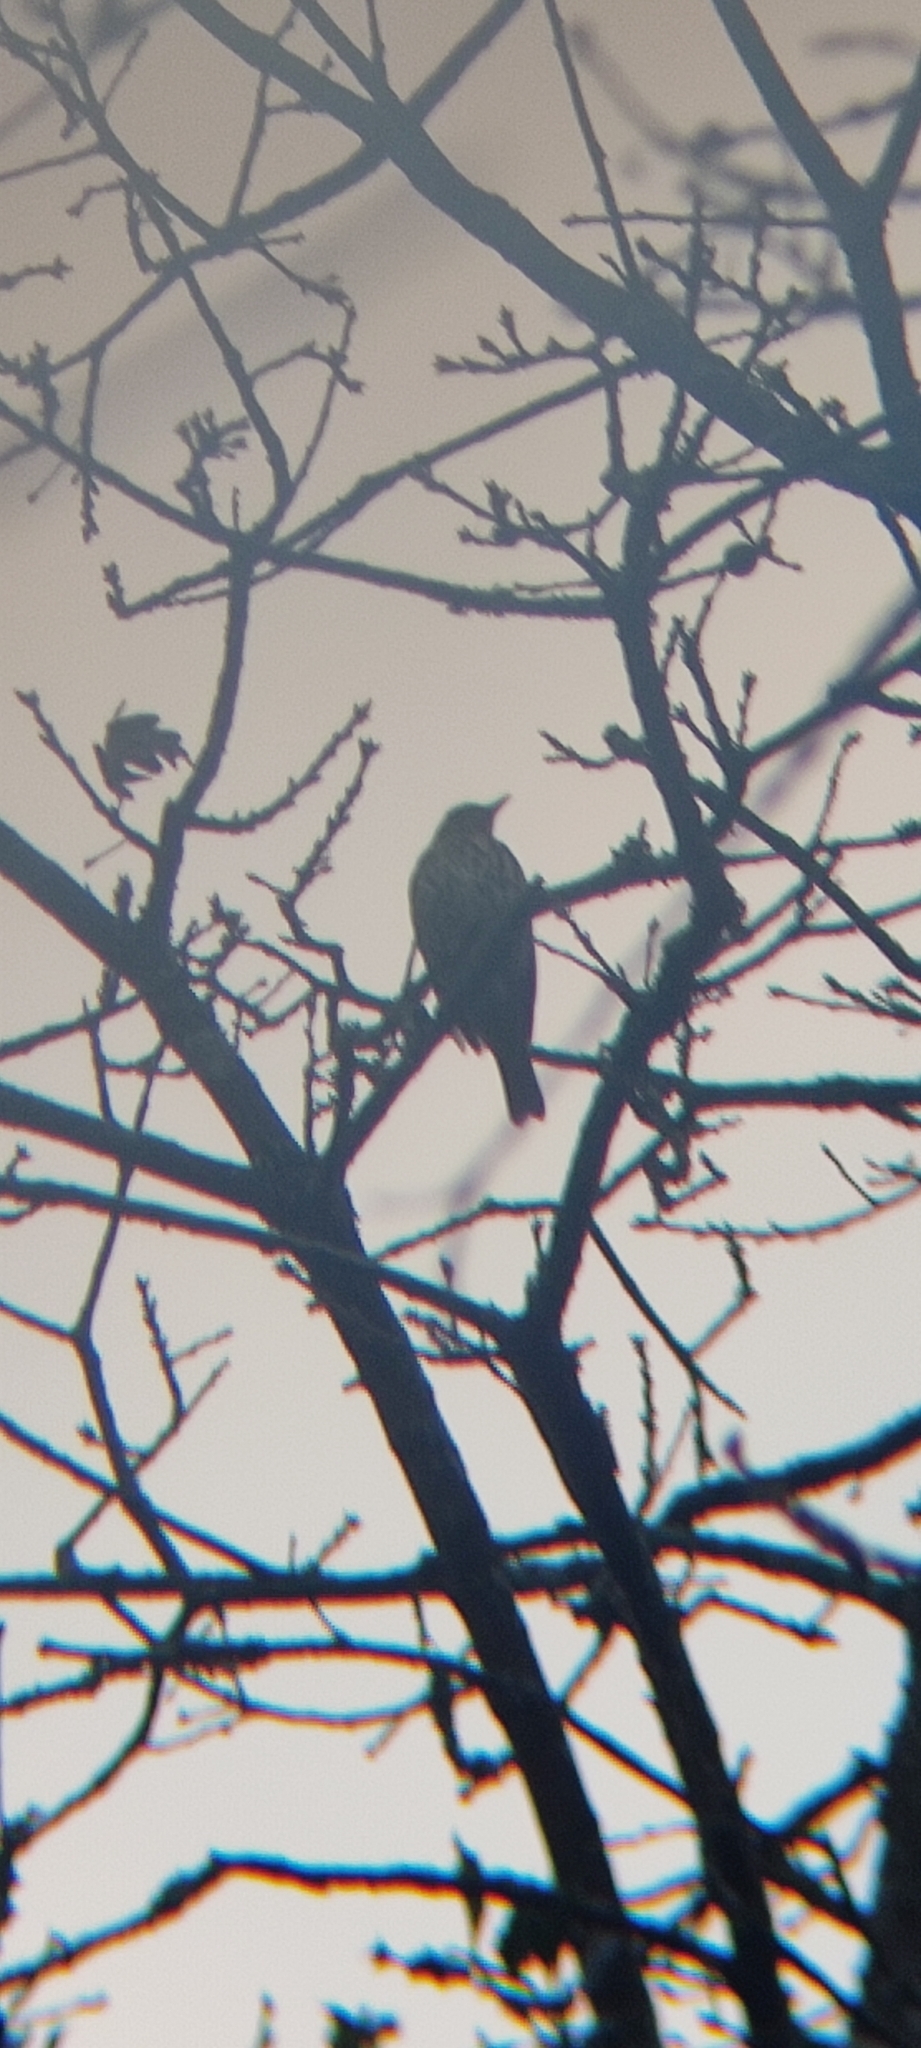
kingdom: Animalia
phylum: Chordata
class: Aves
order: Passeriformes
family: Turdidae
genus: Turdus
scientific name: Turdus philomelos
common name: Song thrush
